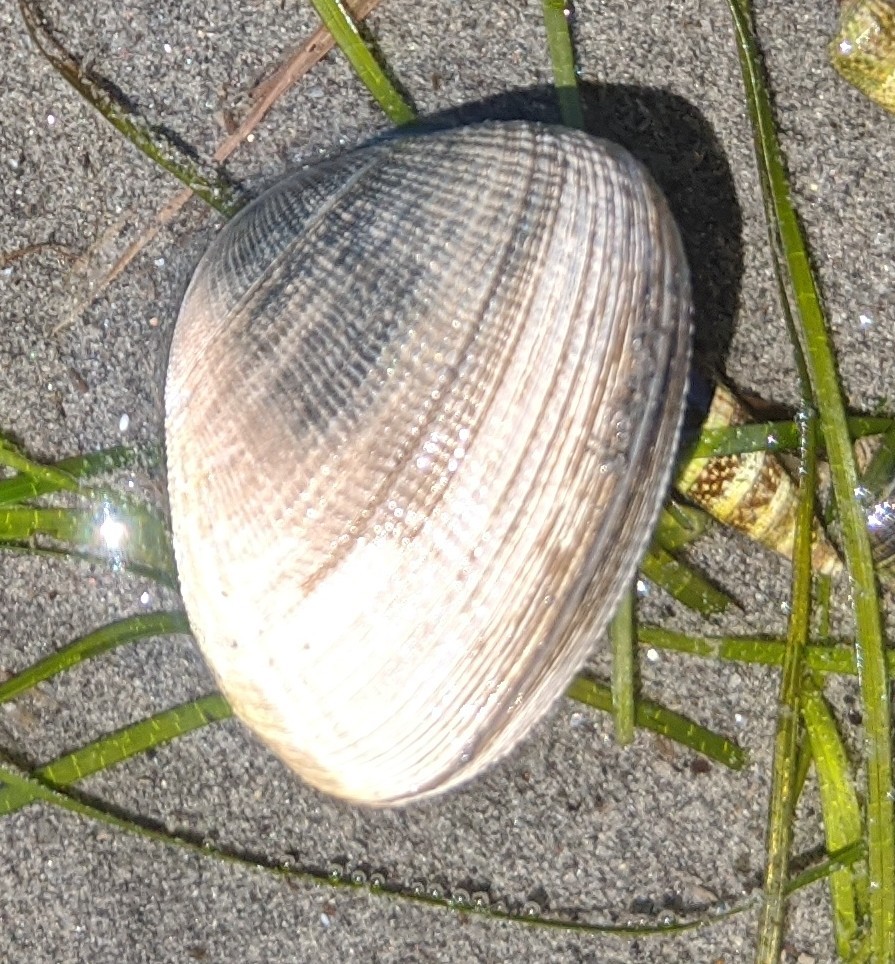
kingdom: Animalia
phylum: Mollusca
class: Bivalvia
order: Venerida
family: Veneridae
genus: Ruditapes
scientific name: Ruditapes philippinarum
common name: Manila clam
